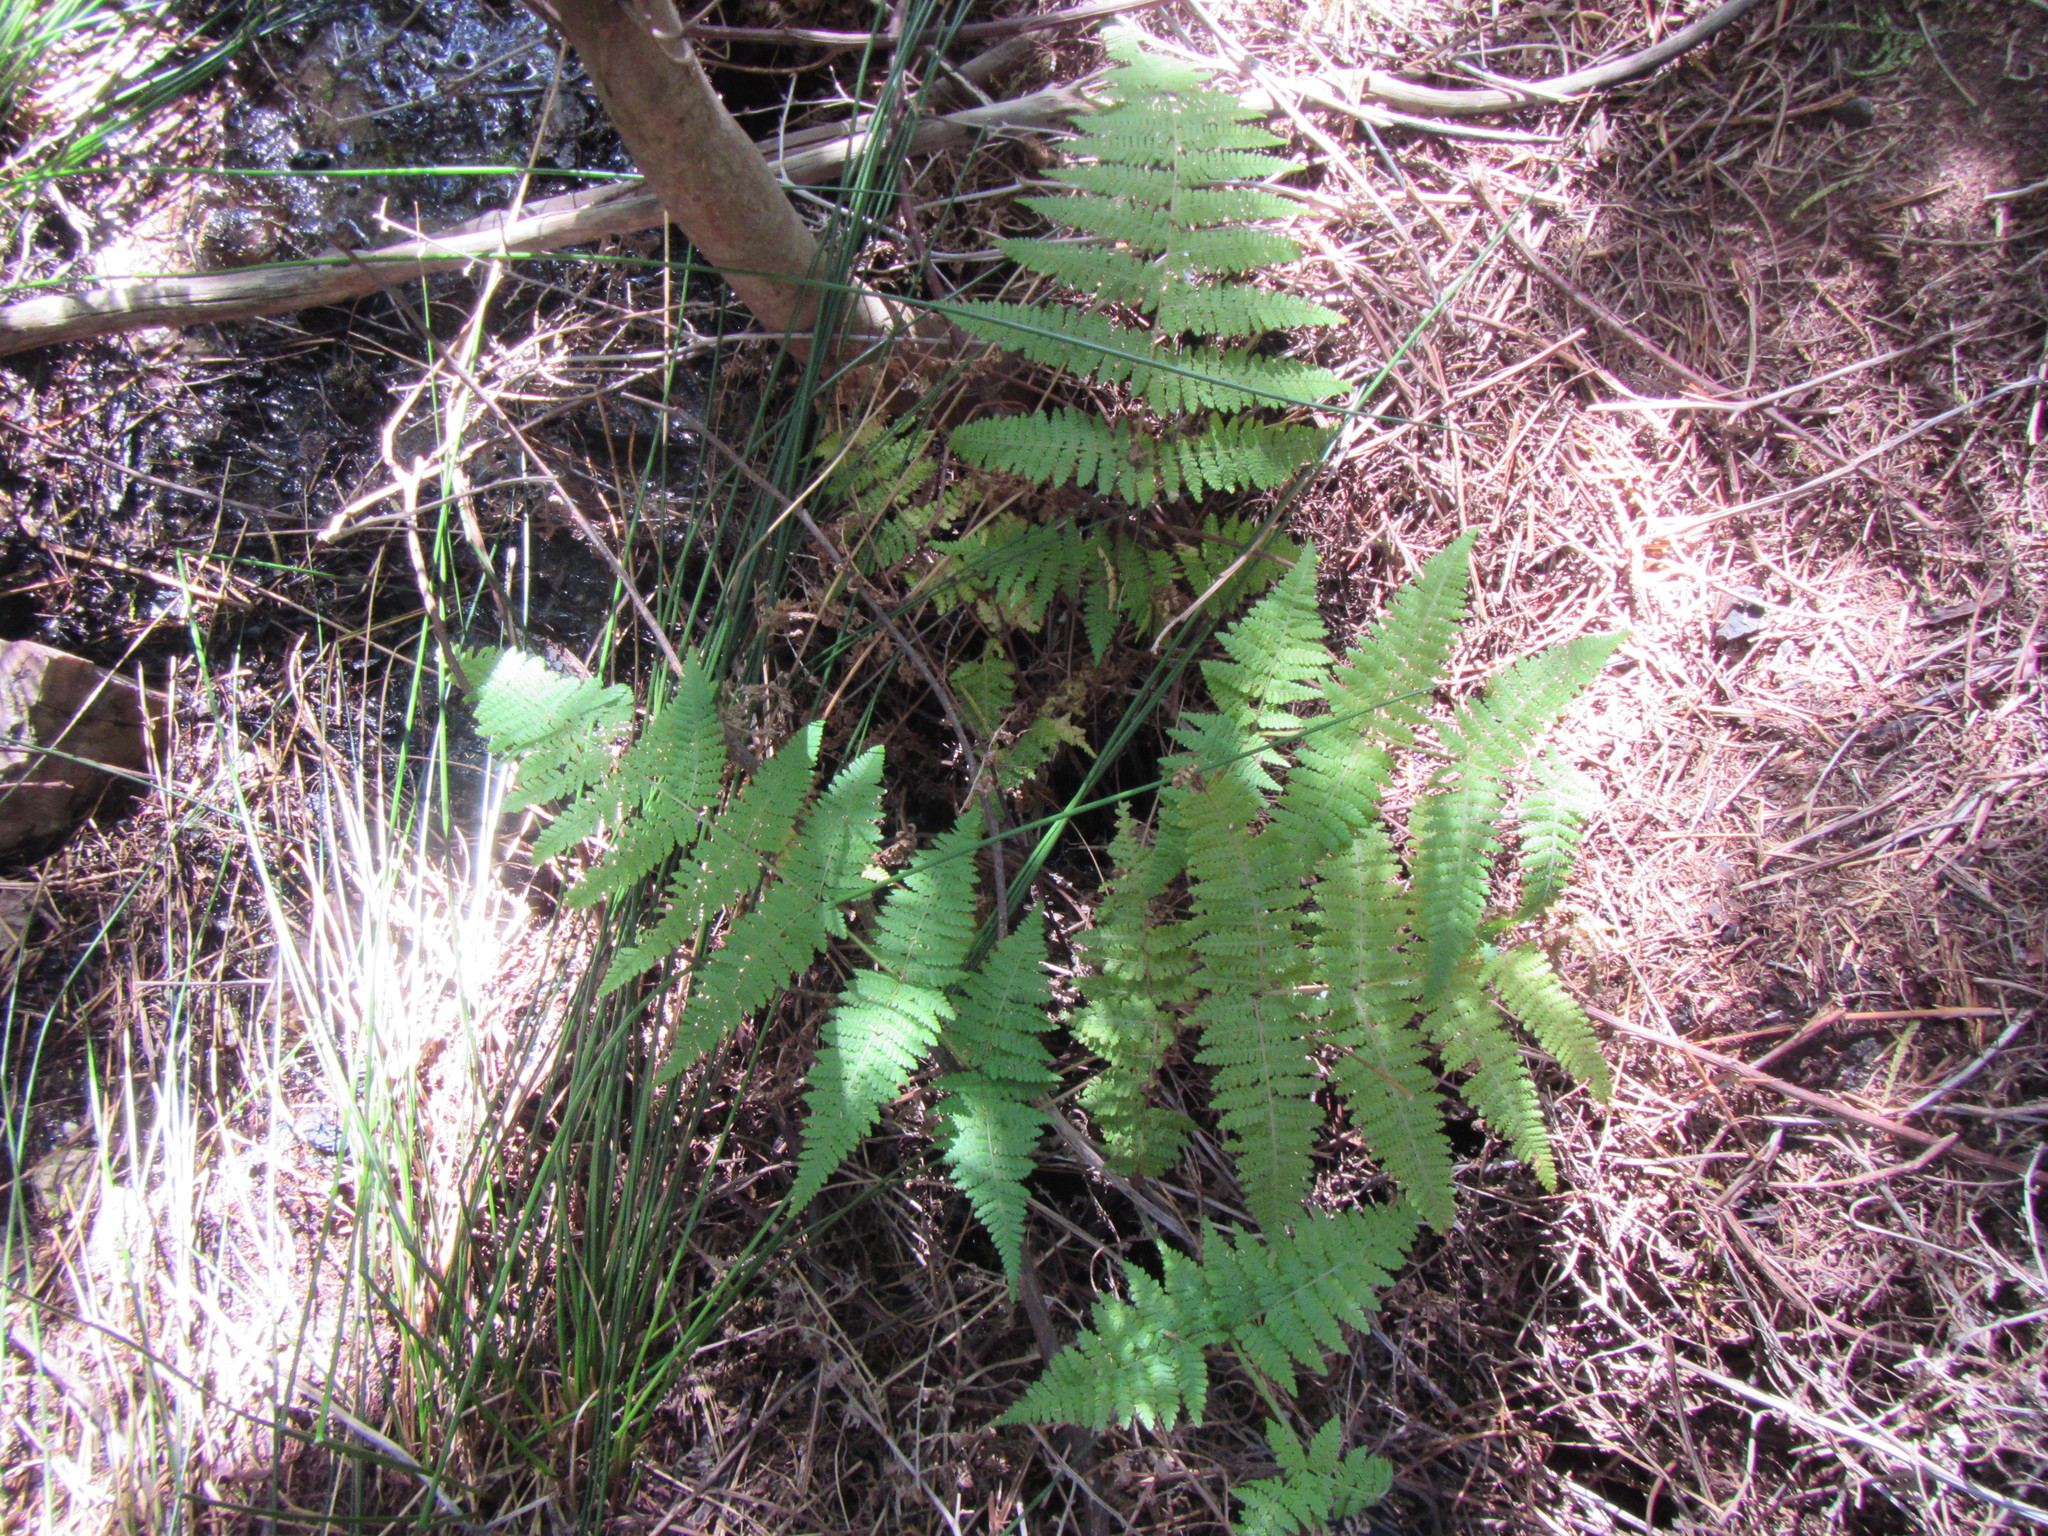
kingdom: Plantae
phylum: Tracheophyta
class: Polypodiopsida
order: Polypodiales
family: Dennstaedtiaceae
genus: Hypolepis
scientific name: Hypolepis sparsisora
